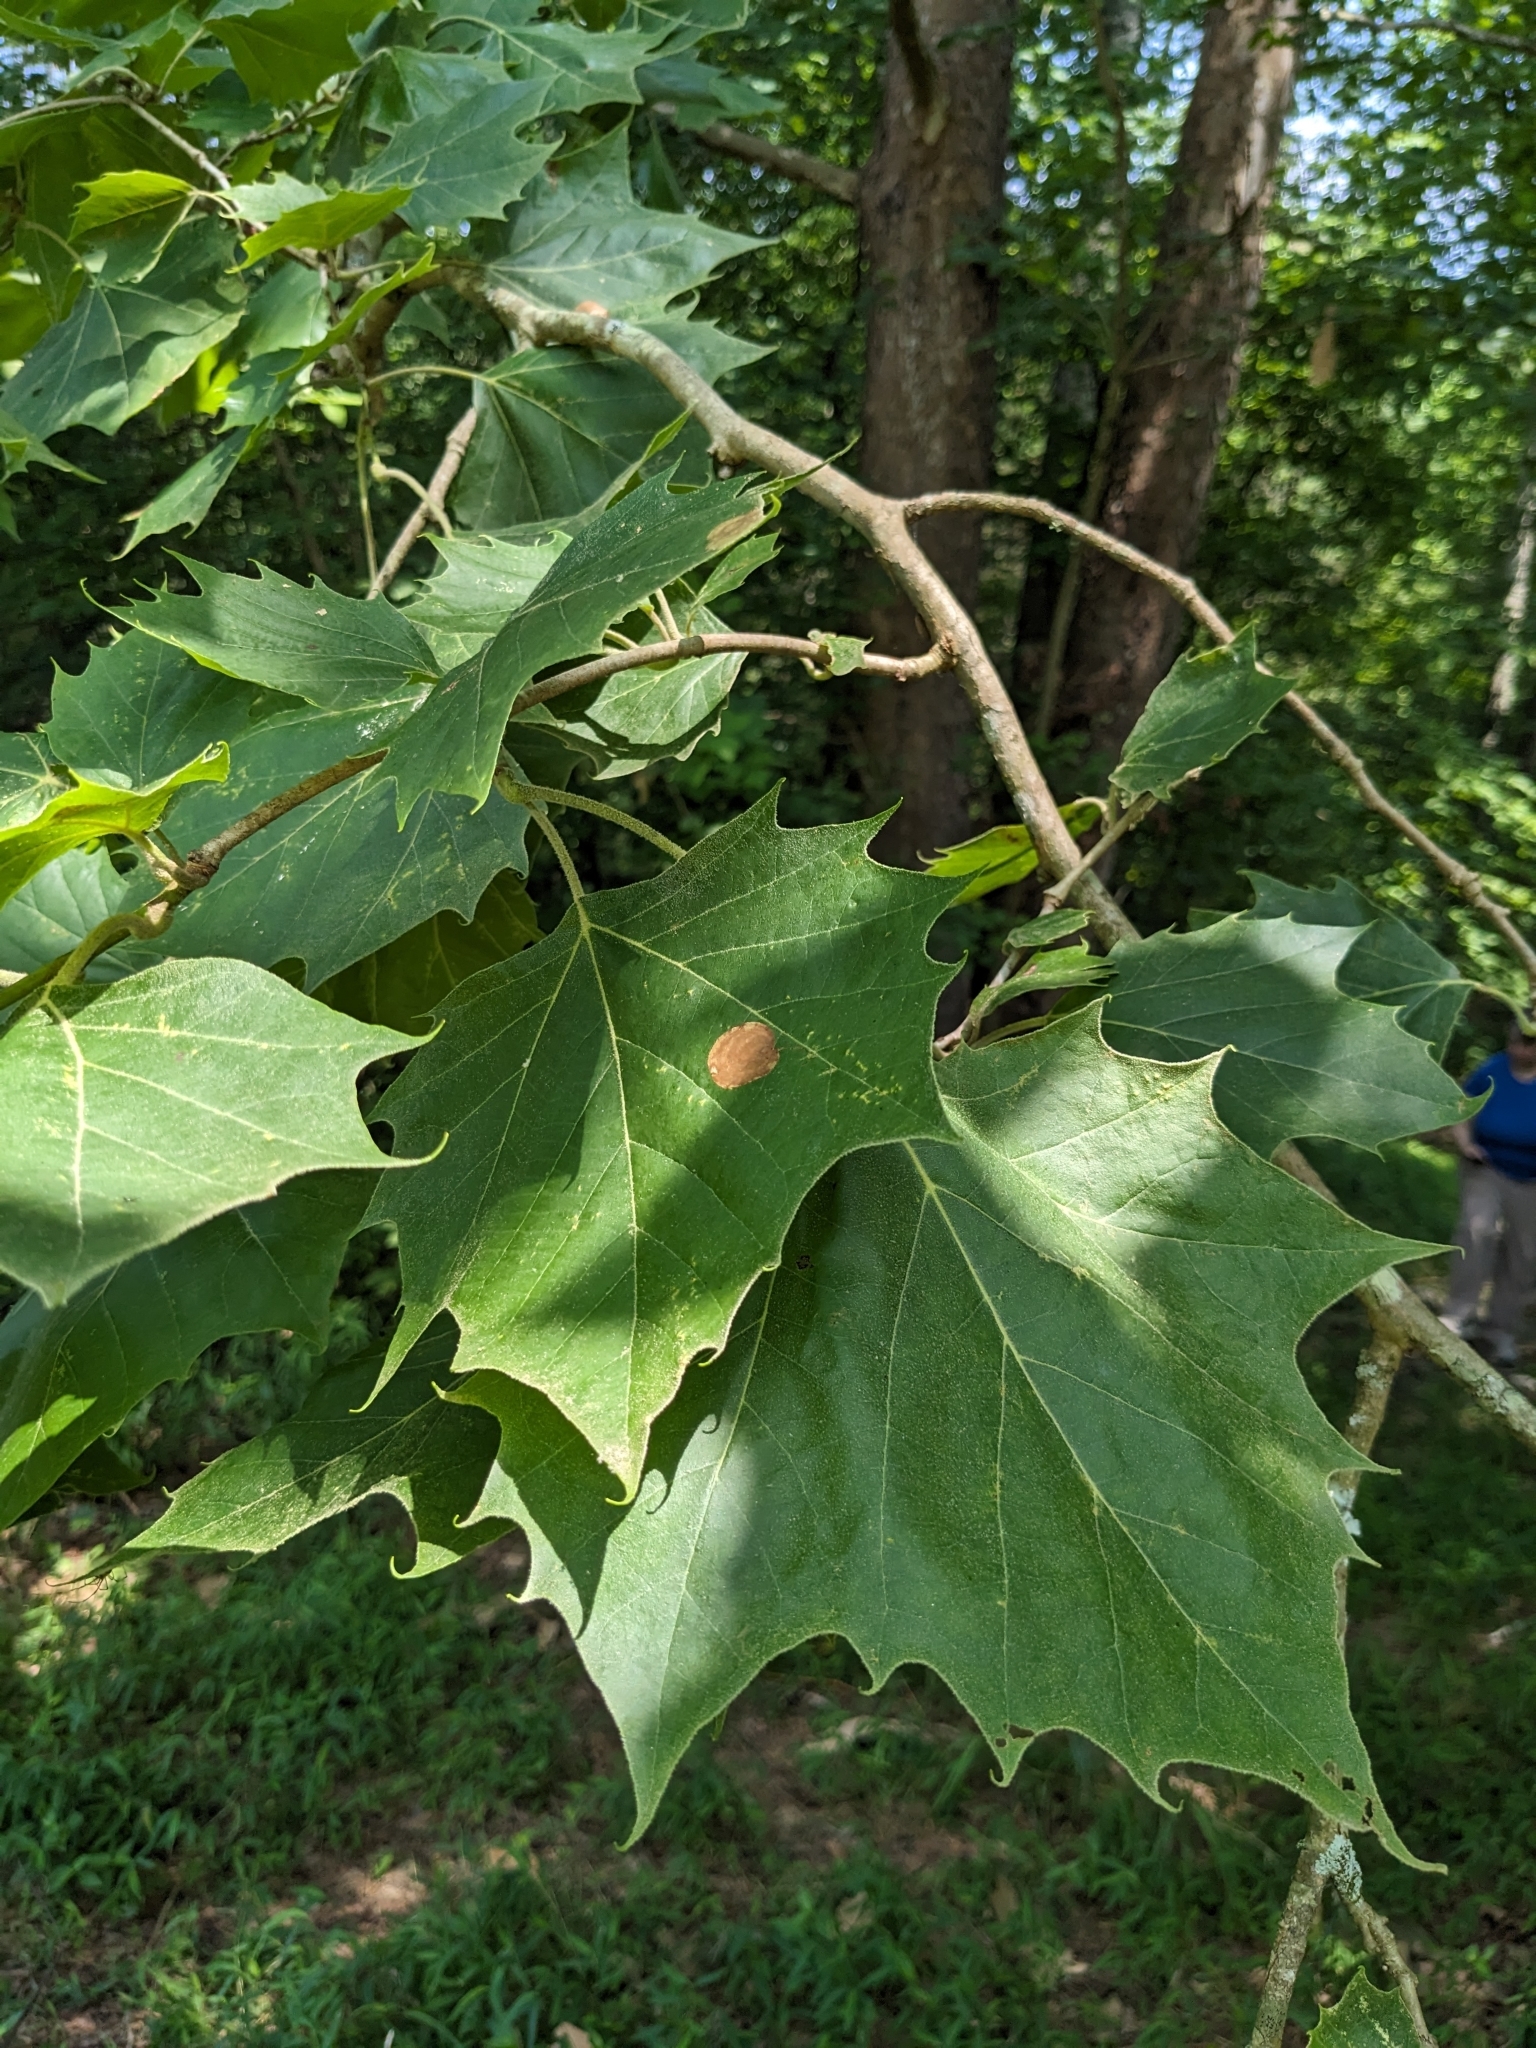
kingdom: Plantae
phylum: Tracheophyta
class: Magnoliopsida
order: Proteales
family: Platanaceae
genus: Platanus
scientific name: Platanus occidentalis
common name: American sycamore
